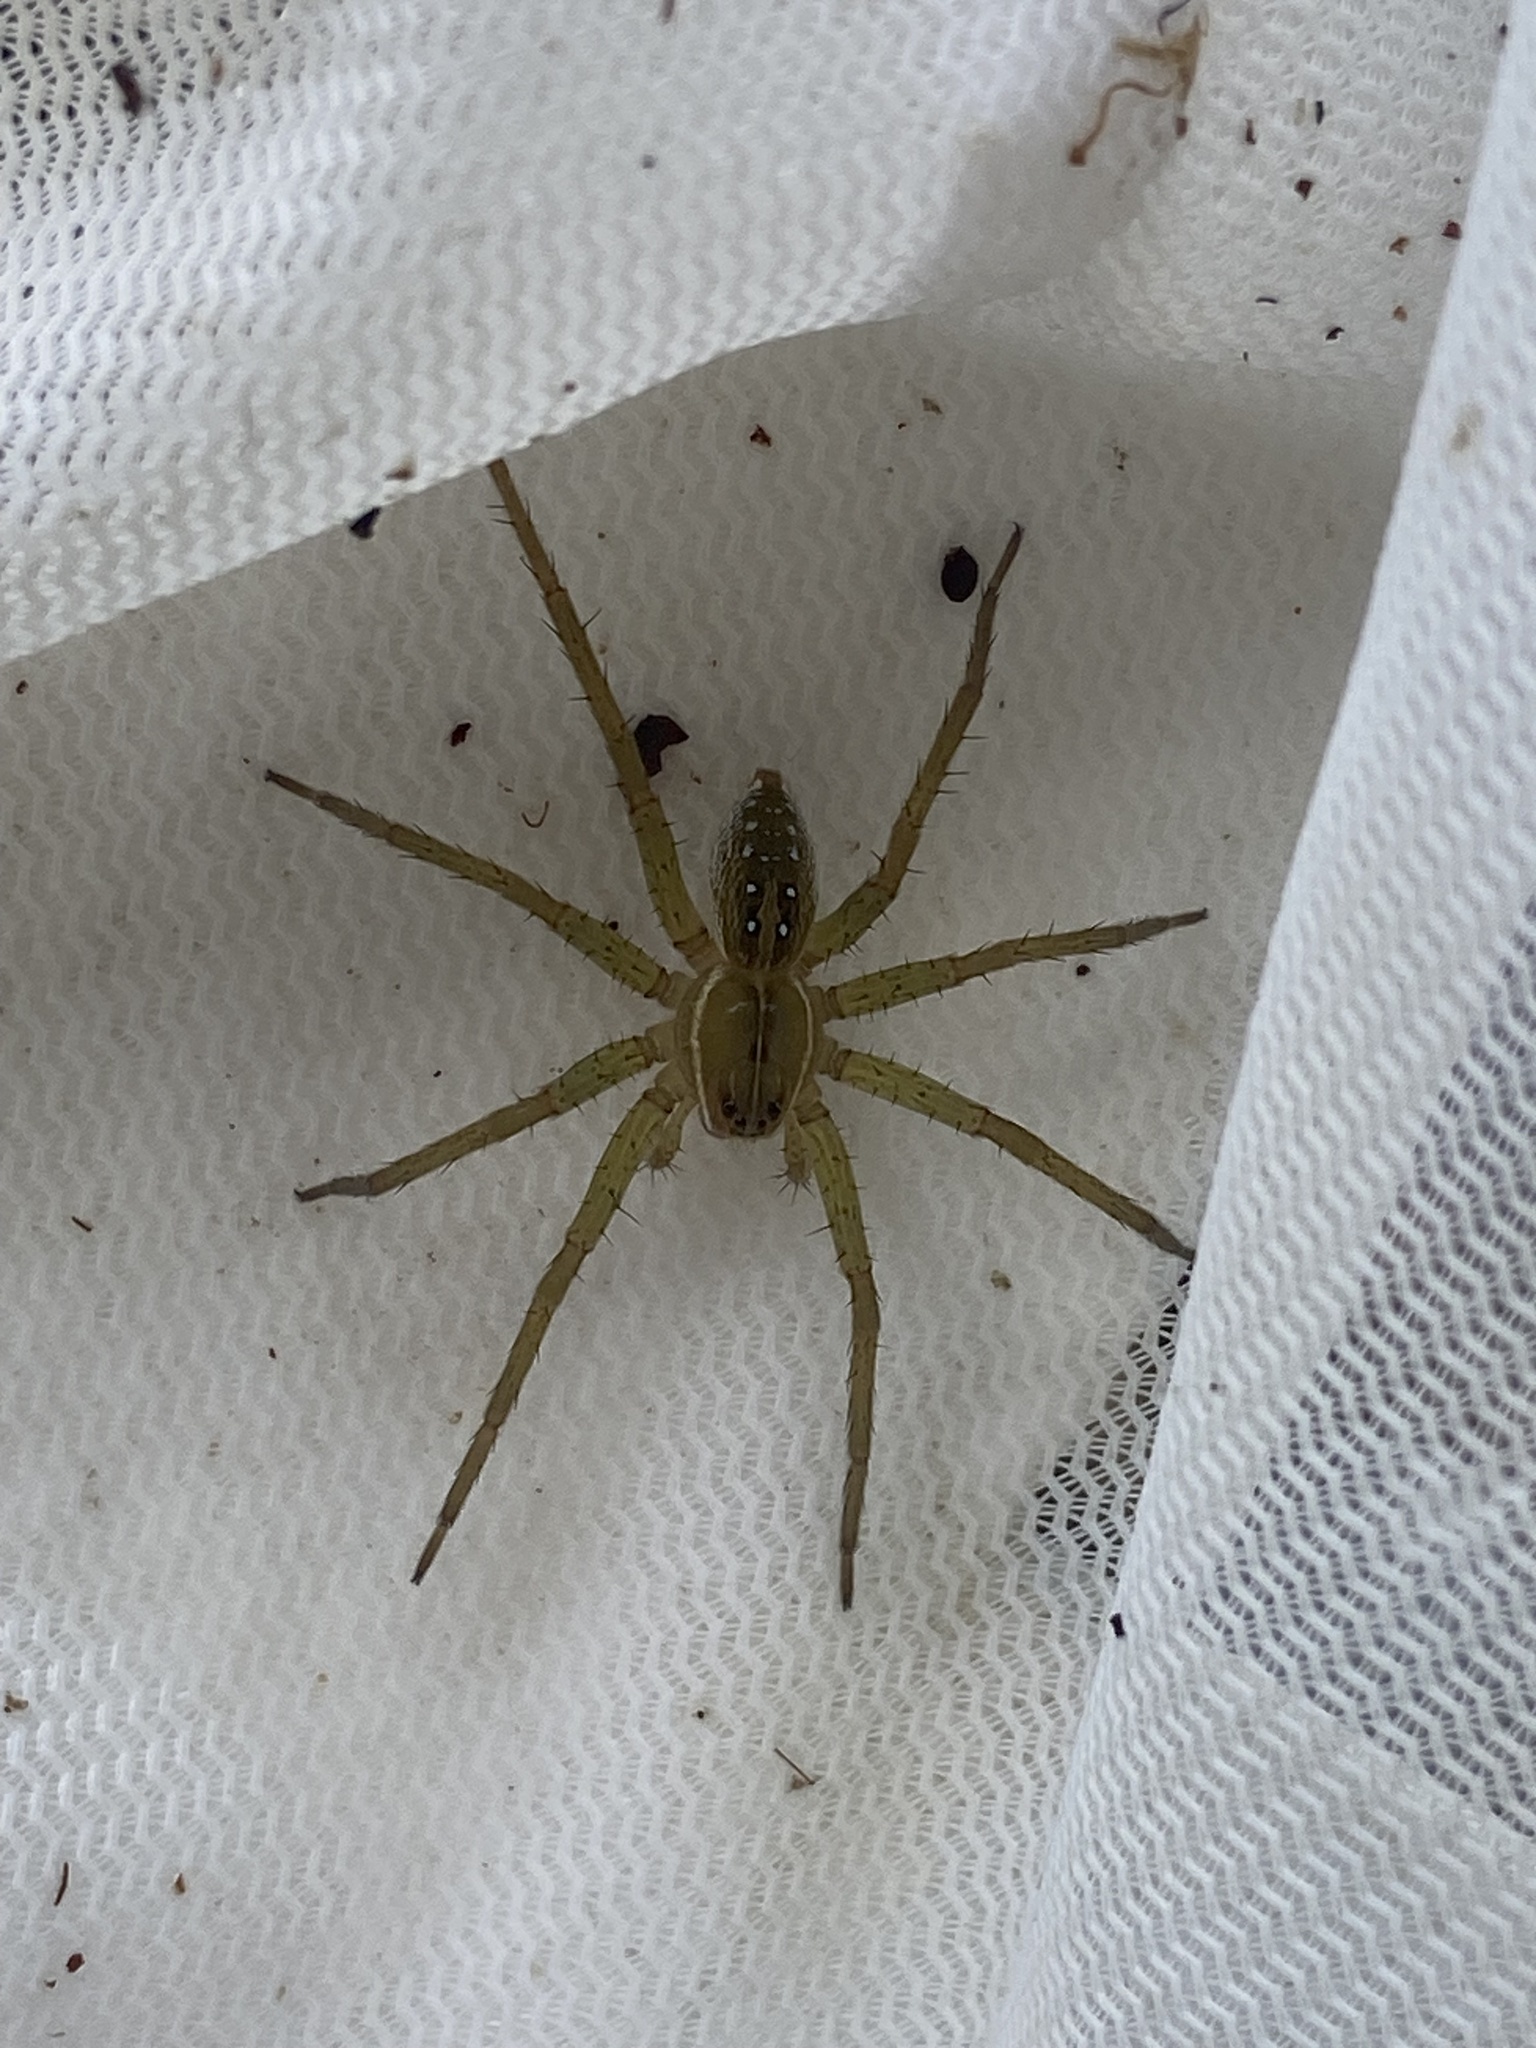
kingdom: Animalia
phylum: Arthropoda
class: Arachnida
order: Araneae
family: Pisauridae
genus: Dolomedes
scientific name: Dolomedes triton
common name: Six-spotted fishing spider
